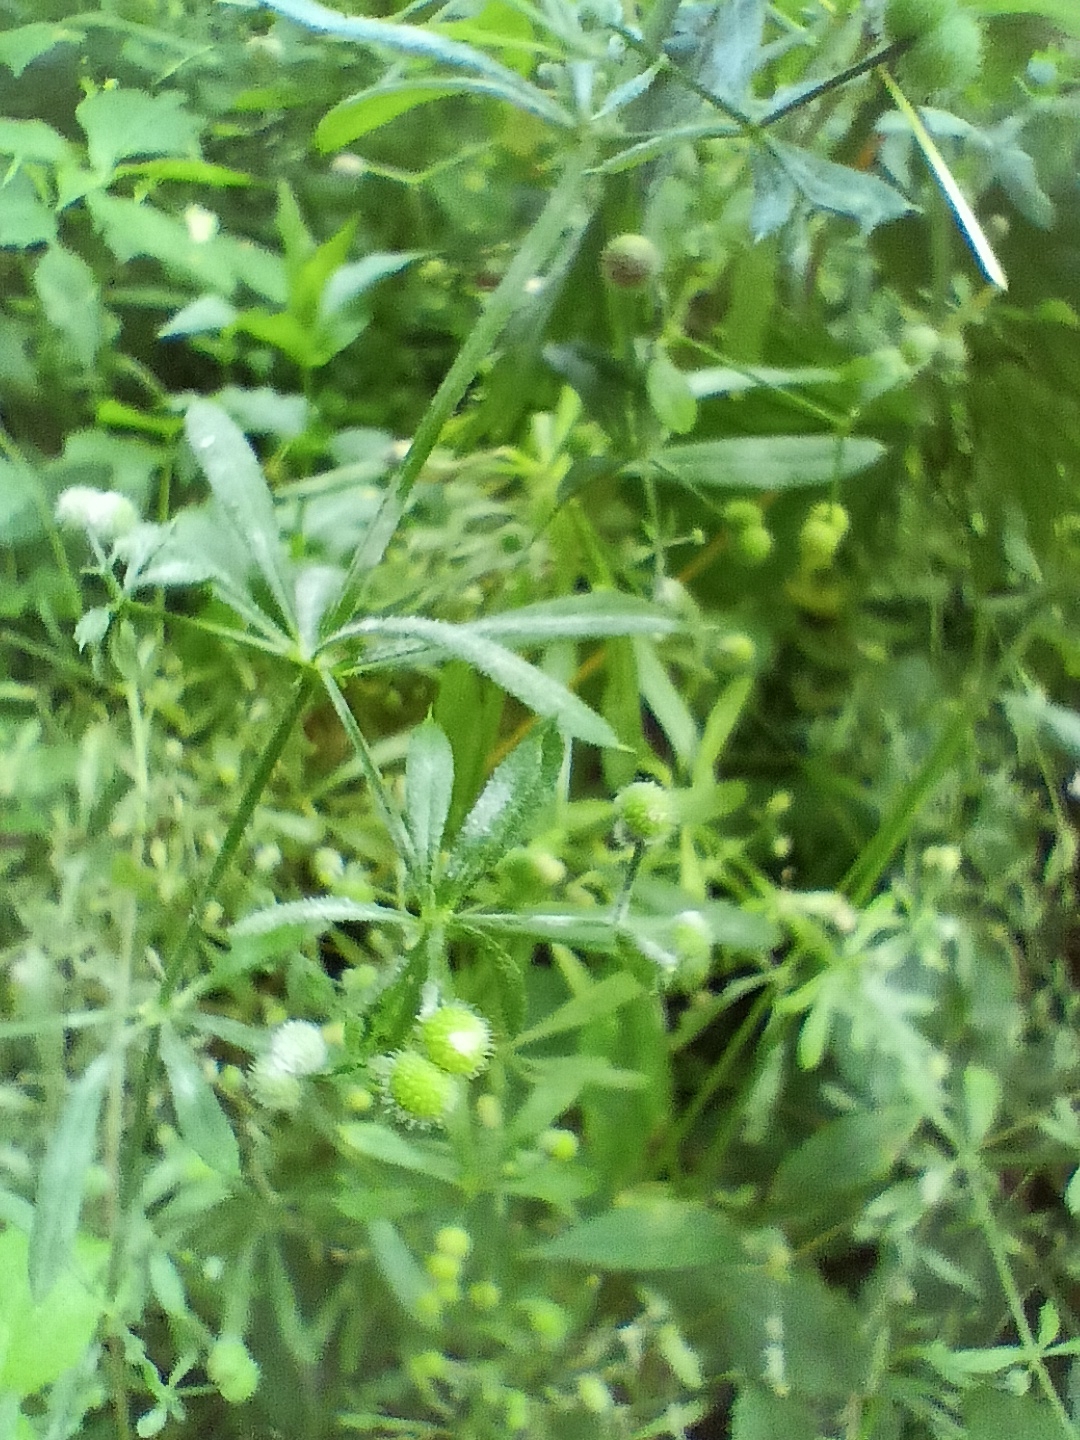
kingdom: Plantae
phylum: Tracheophyta
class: Magnoliopsida
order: Gentianales
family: Rubiaceae
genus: Galium
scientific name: Galium aparine
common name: Cleavers
